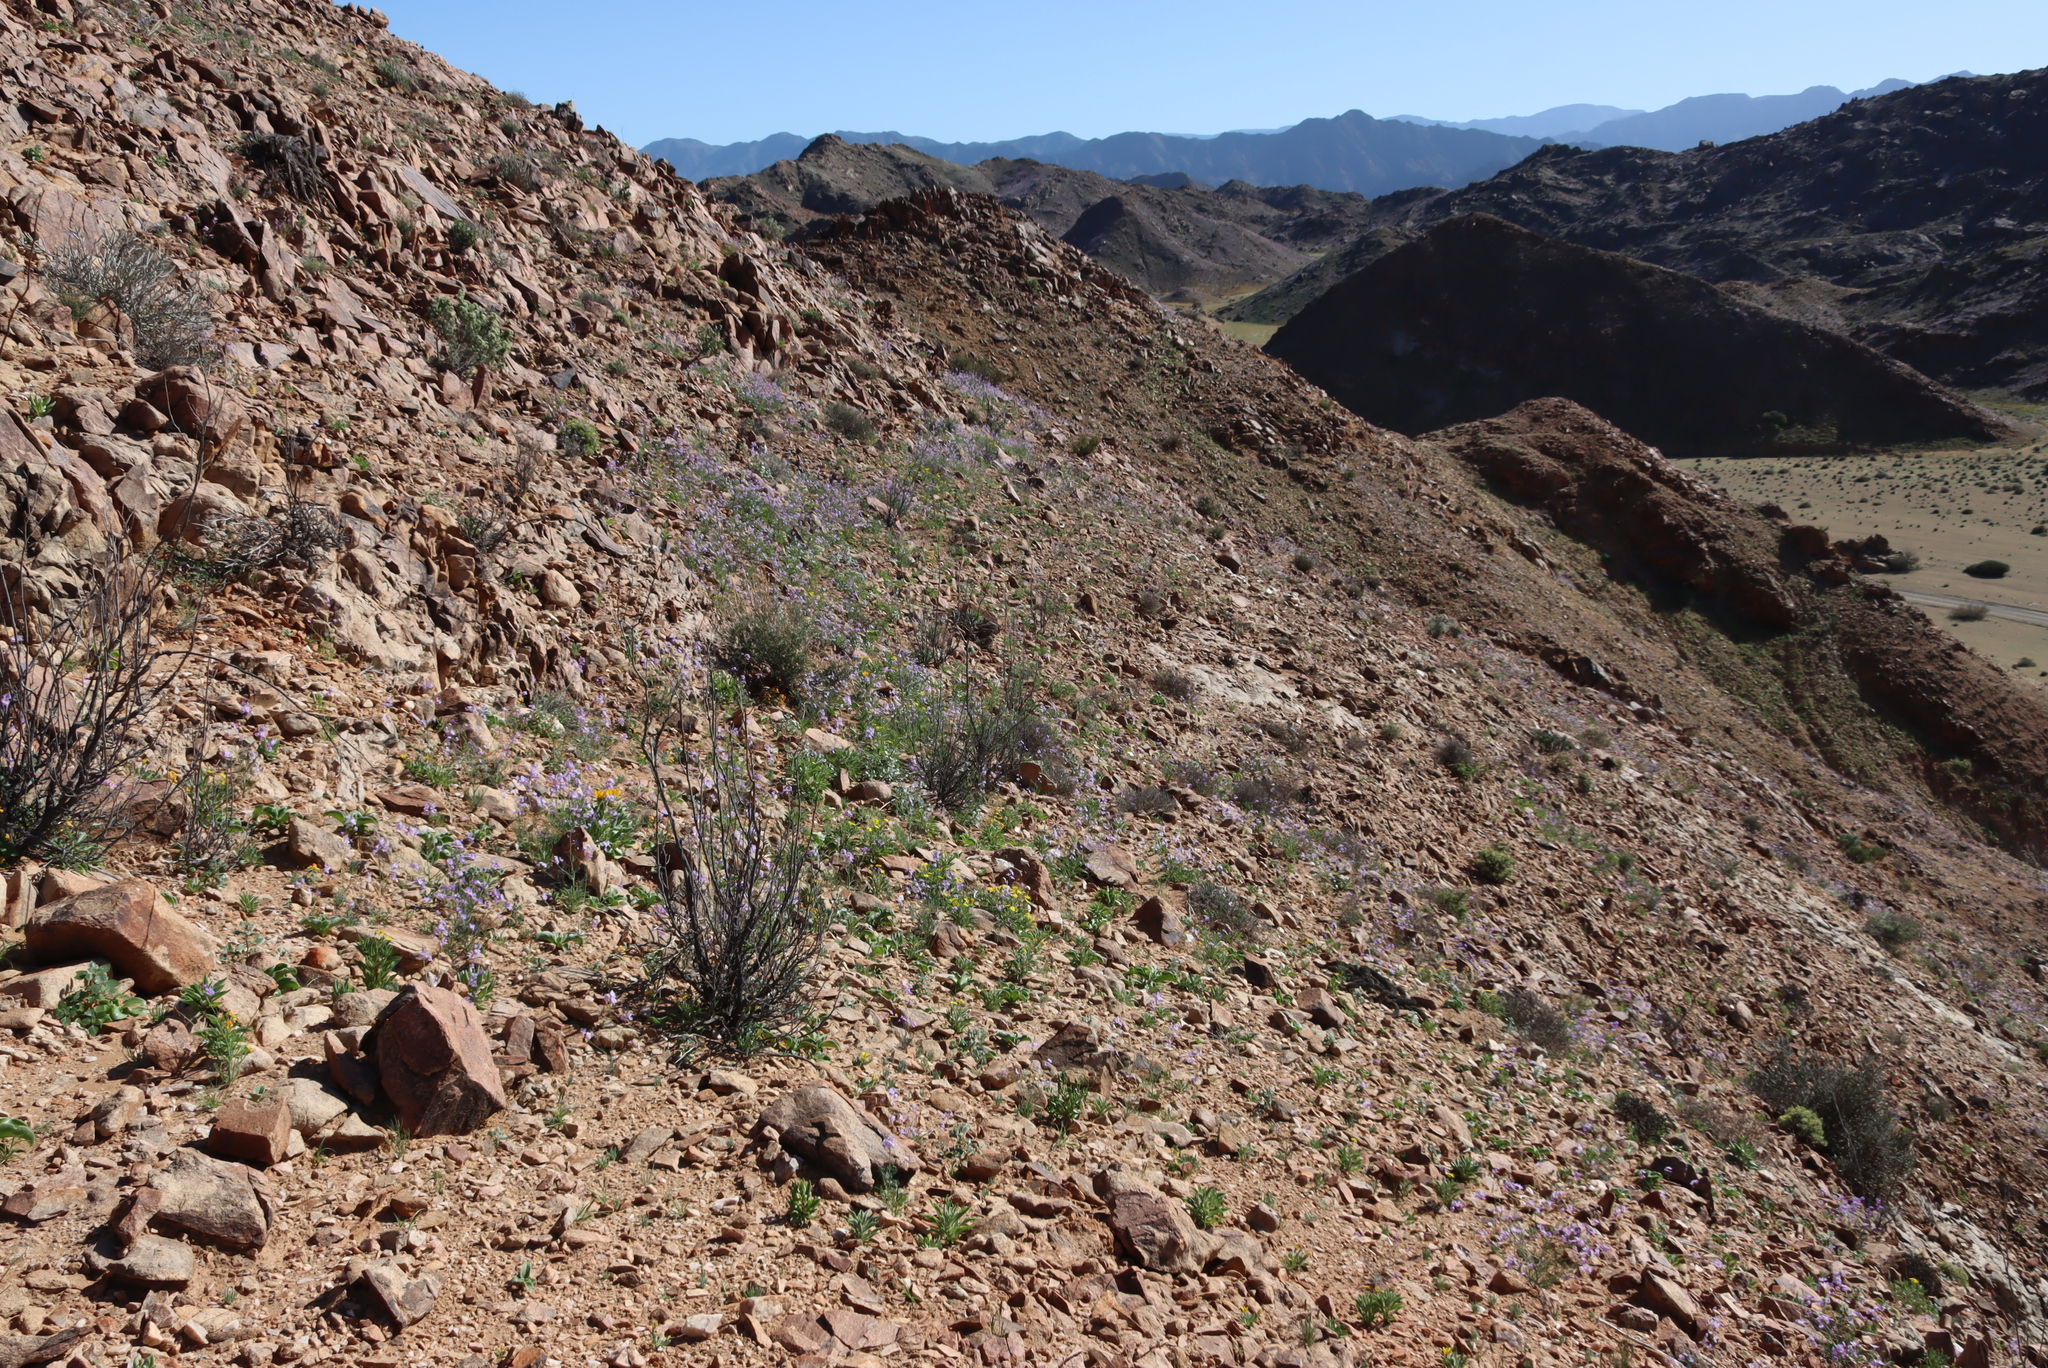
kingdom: Plantae
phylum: Tracheophyta
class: Magnoliopsida
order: Brassicales
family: Brassicaceae
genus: Heliophila
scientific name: Heliophila trifurca
